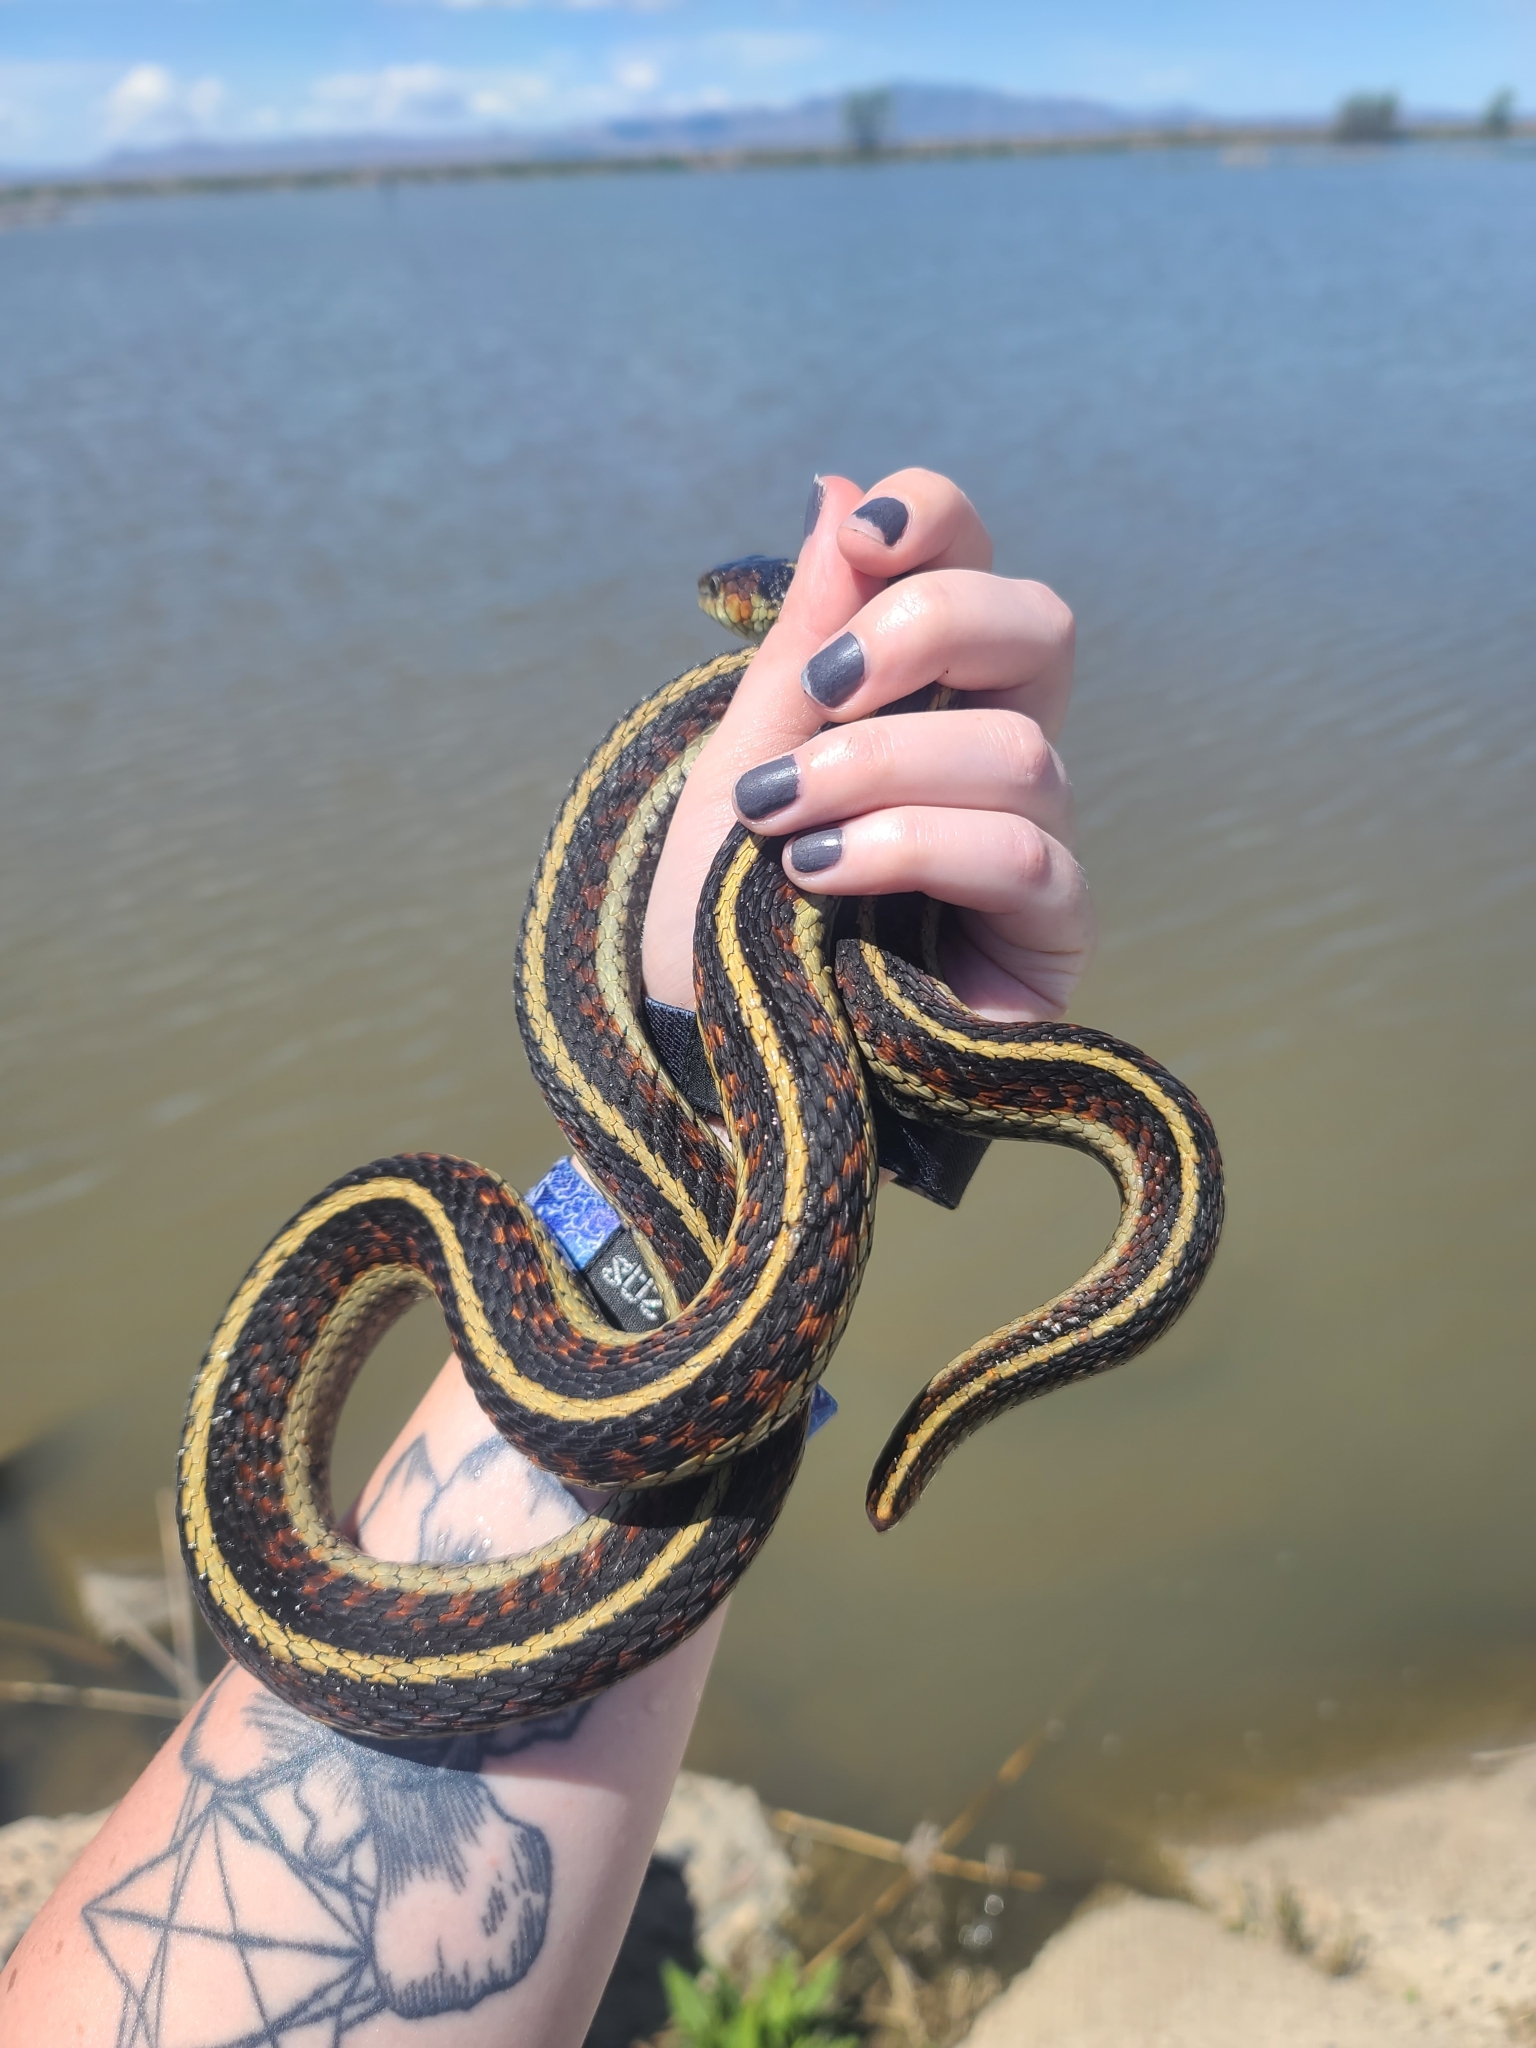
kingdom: Animalia
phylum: Chordata
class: Squamata
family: Colubridae
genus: Thamnophis
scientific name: Thamnophis sirtalis
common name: Common garter snake
